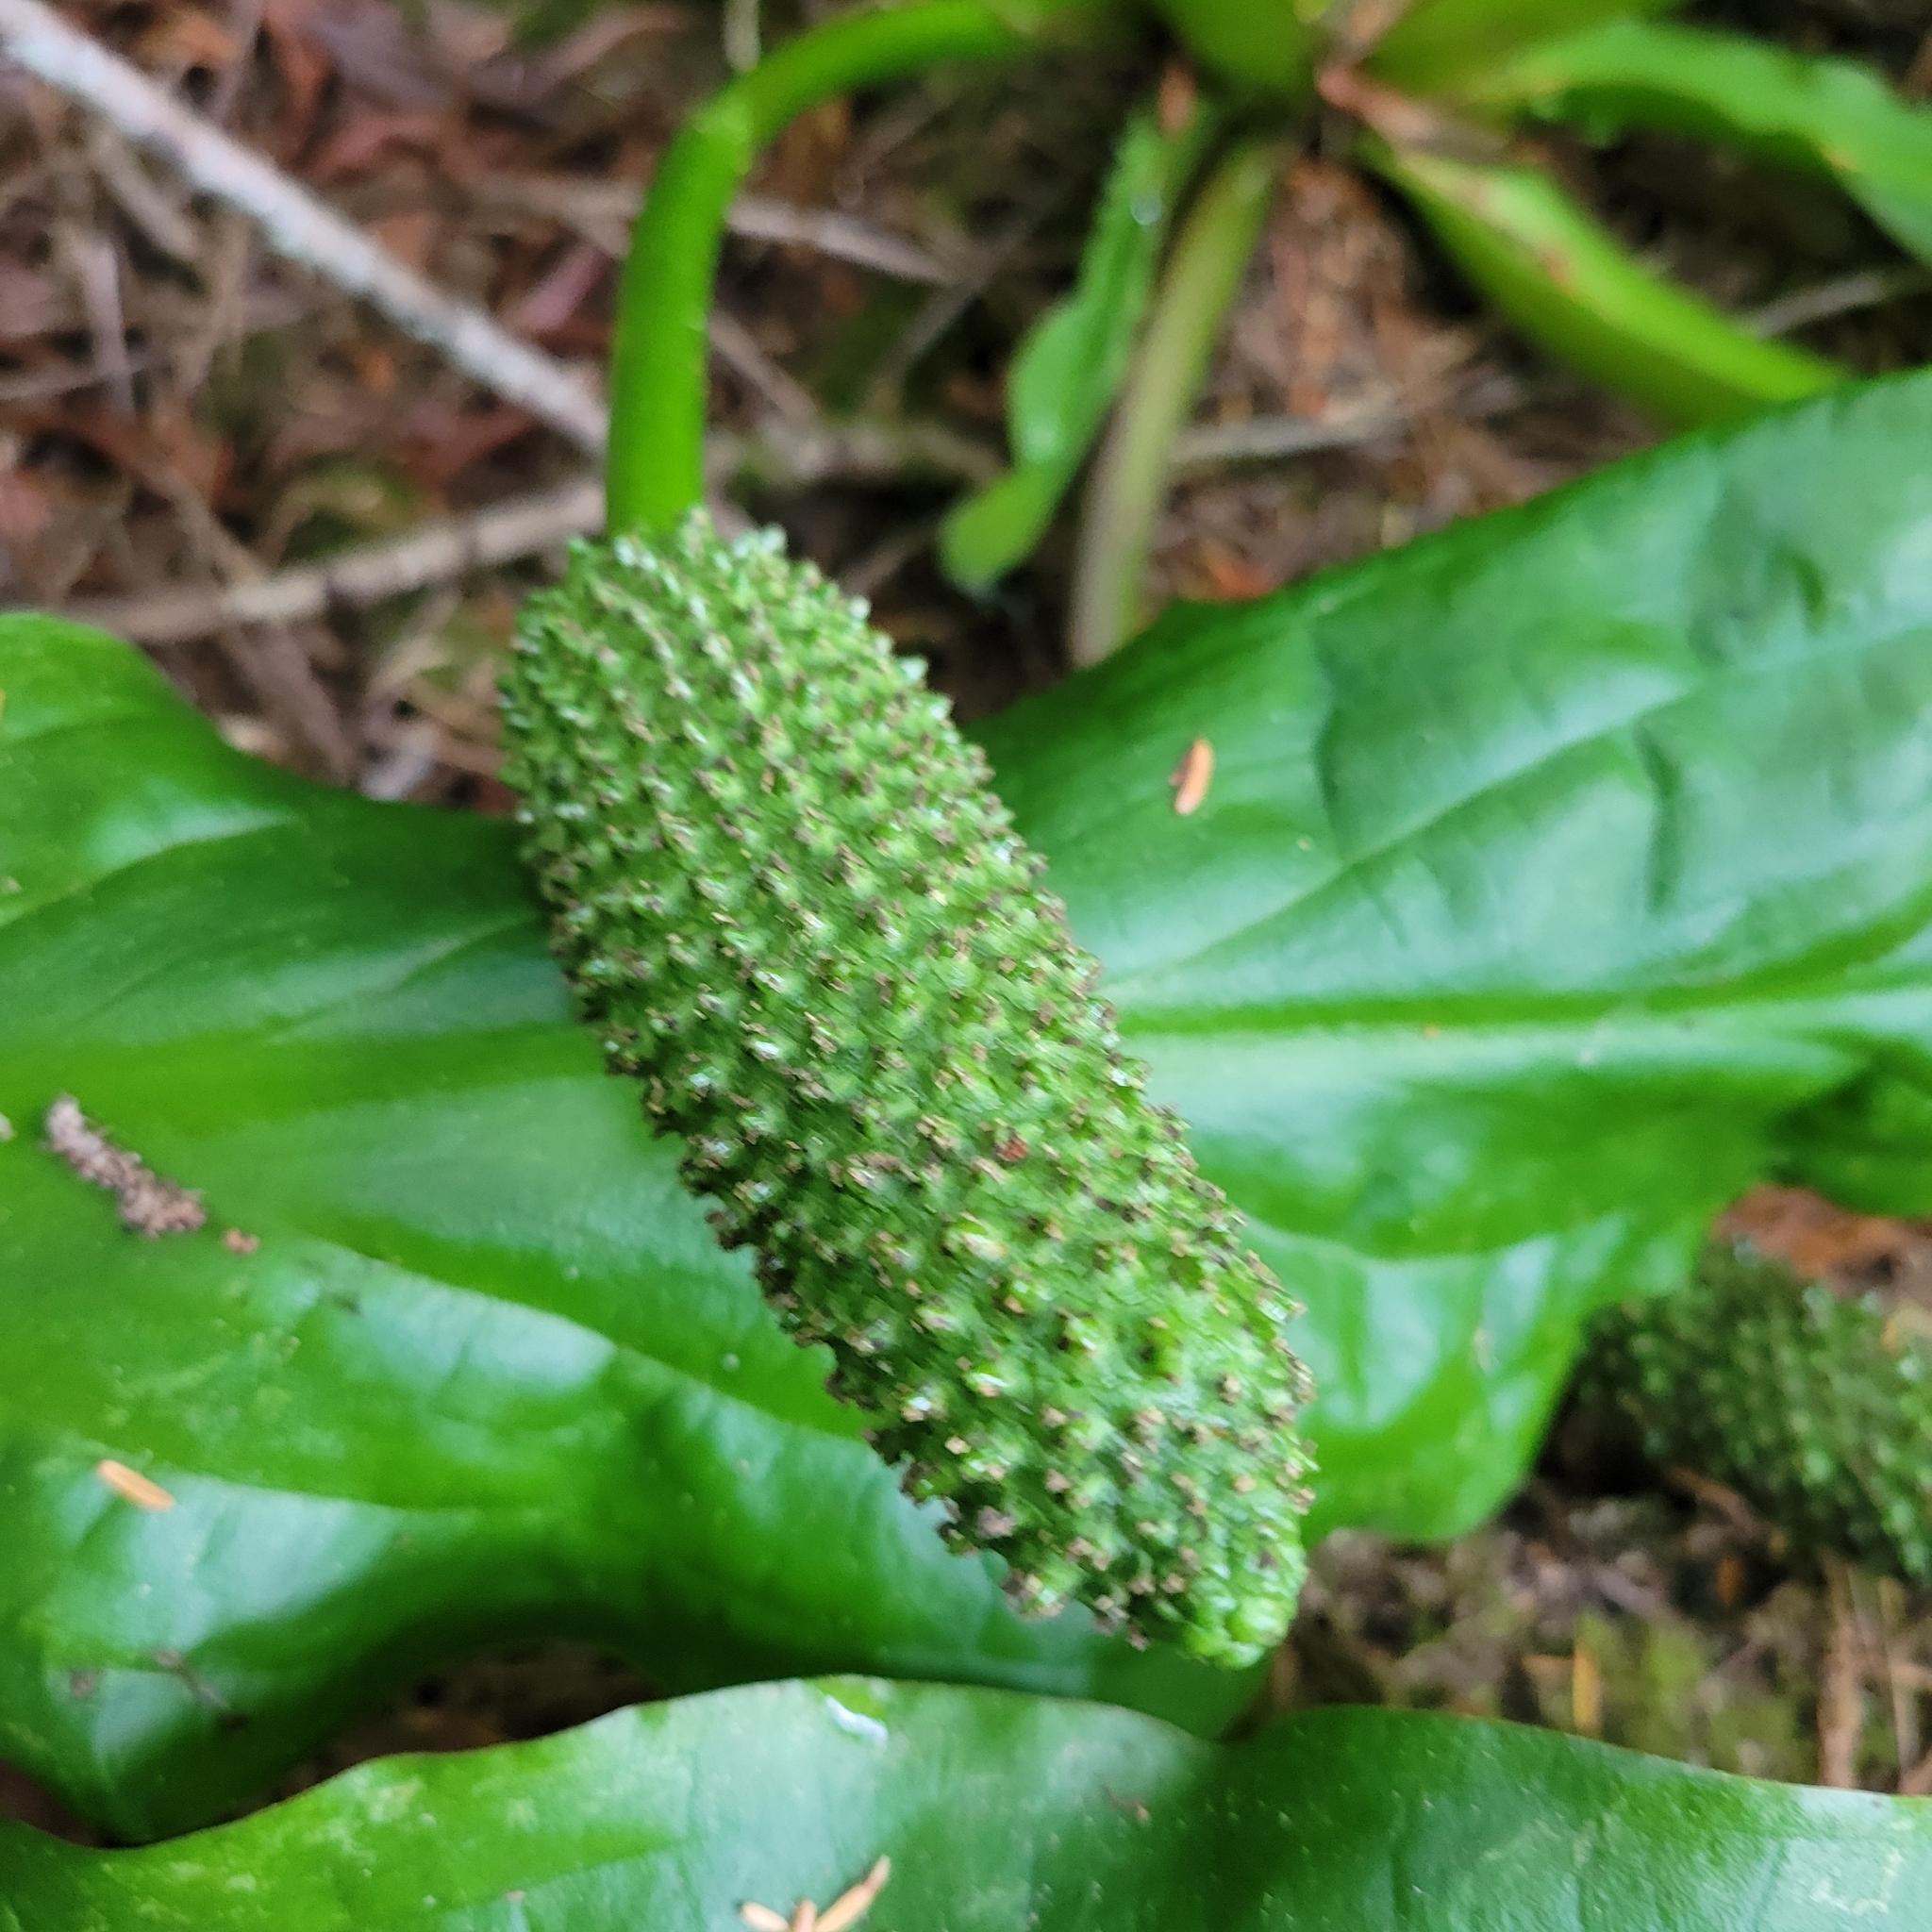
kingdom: Plantae
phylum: Tracheophyta
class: Liliopsida
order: Alismatales
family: Araceae
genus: Lysichiton
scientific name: Lysichiton americanus
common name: American skunk cabbage
